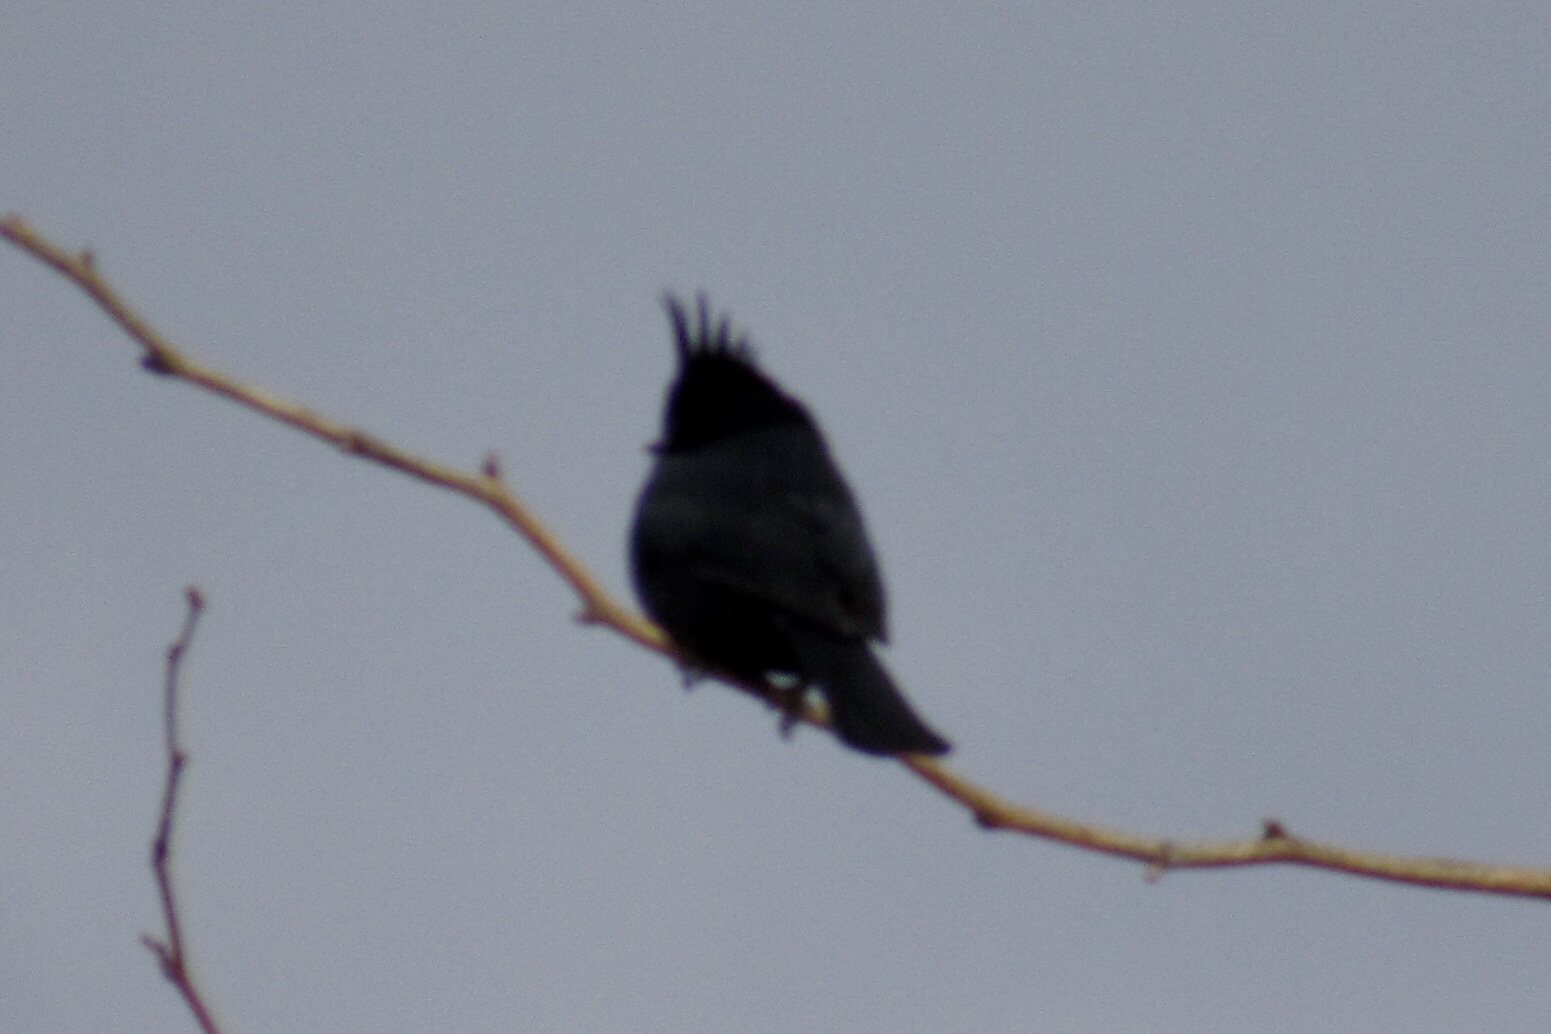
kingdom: Animalia
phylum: Chordata
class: Aves
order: Passeriformes
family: Ptilogonatidae
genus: Phainopepla
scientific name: Phainopepla nitens
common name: Phainopepla
